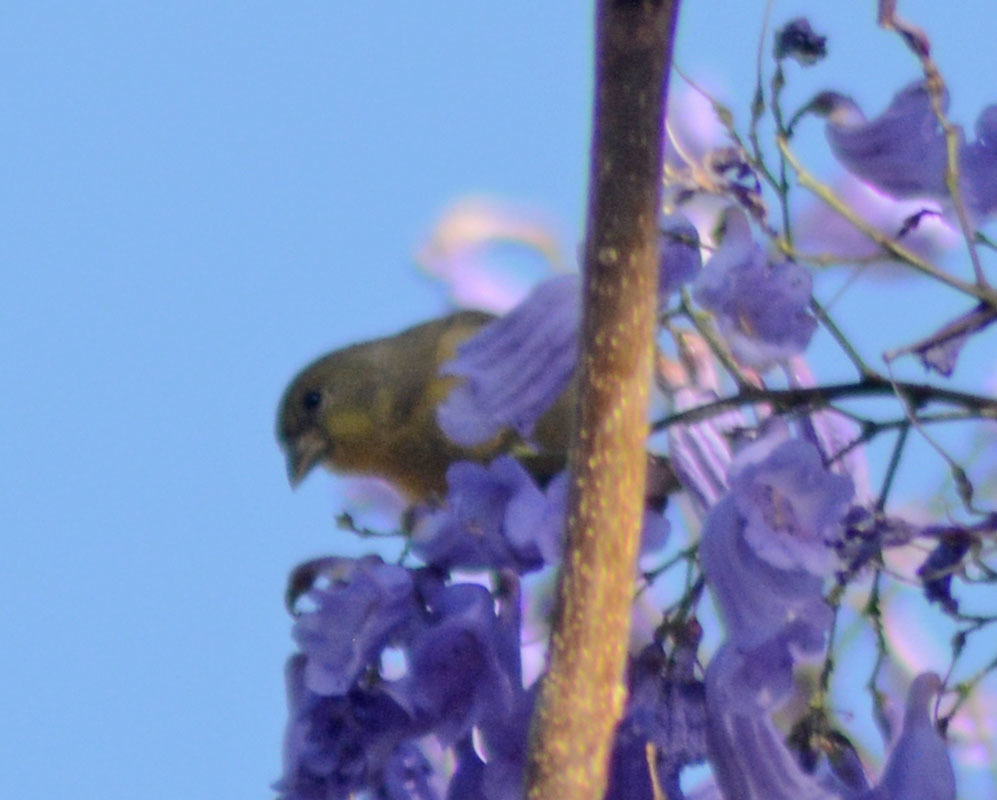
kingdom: Animalia
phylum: Chordata
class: Aves
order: Passeriformes
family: Fringillidae
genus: Spinus
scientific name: Spinus psaltria
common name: Lesser goldfinch
